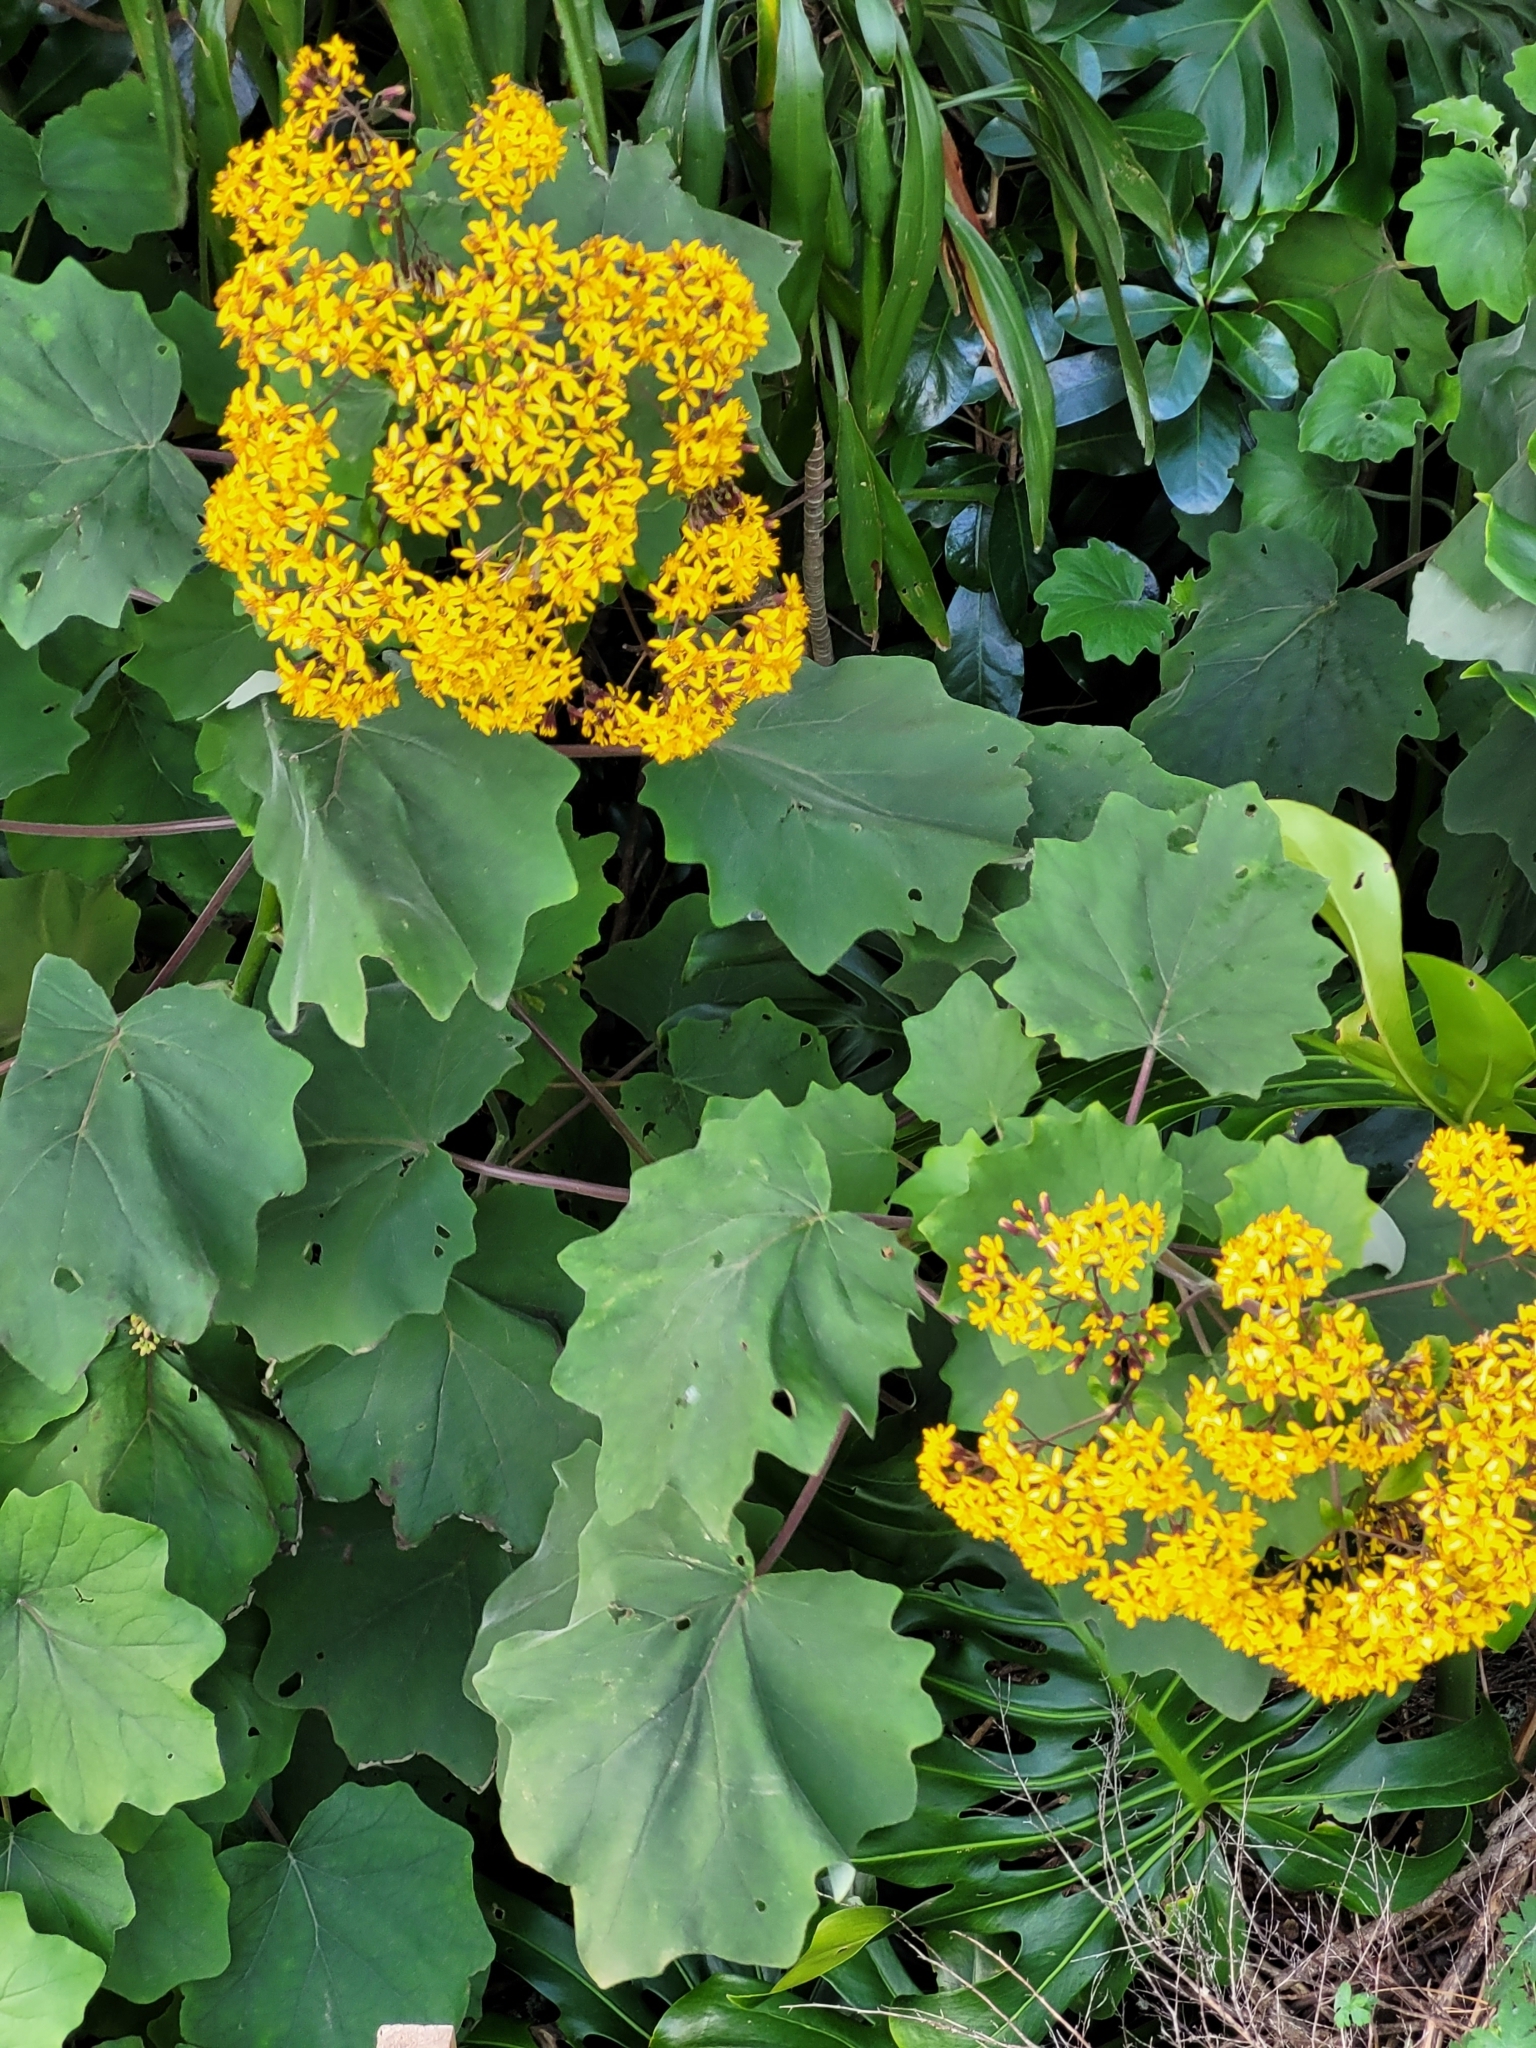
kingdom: Plantae
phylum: Tracheophyta
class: Magnoliopsida
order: Asterales
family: Asteraceae
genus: Roldana
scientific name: Roldana petasitis
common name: California-geranium
